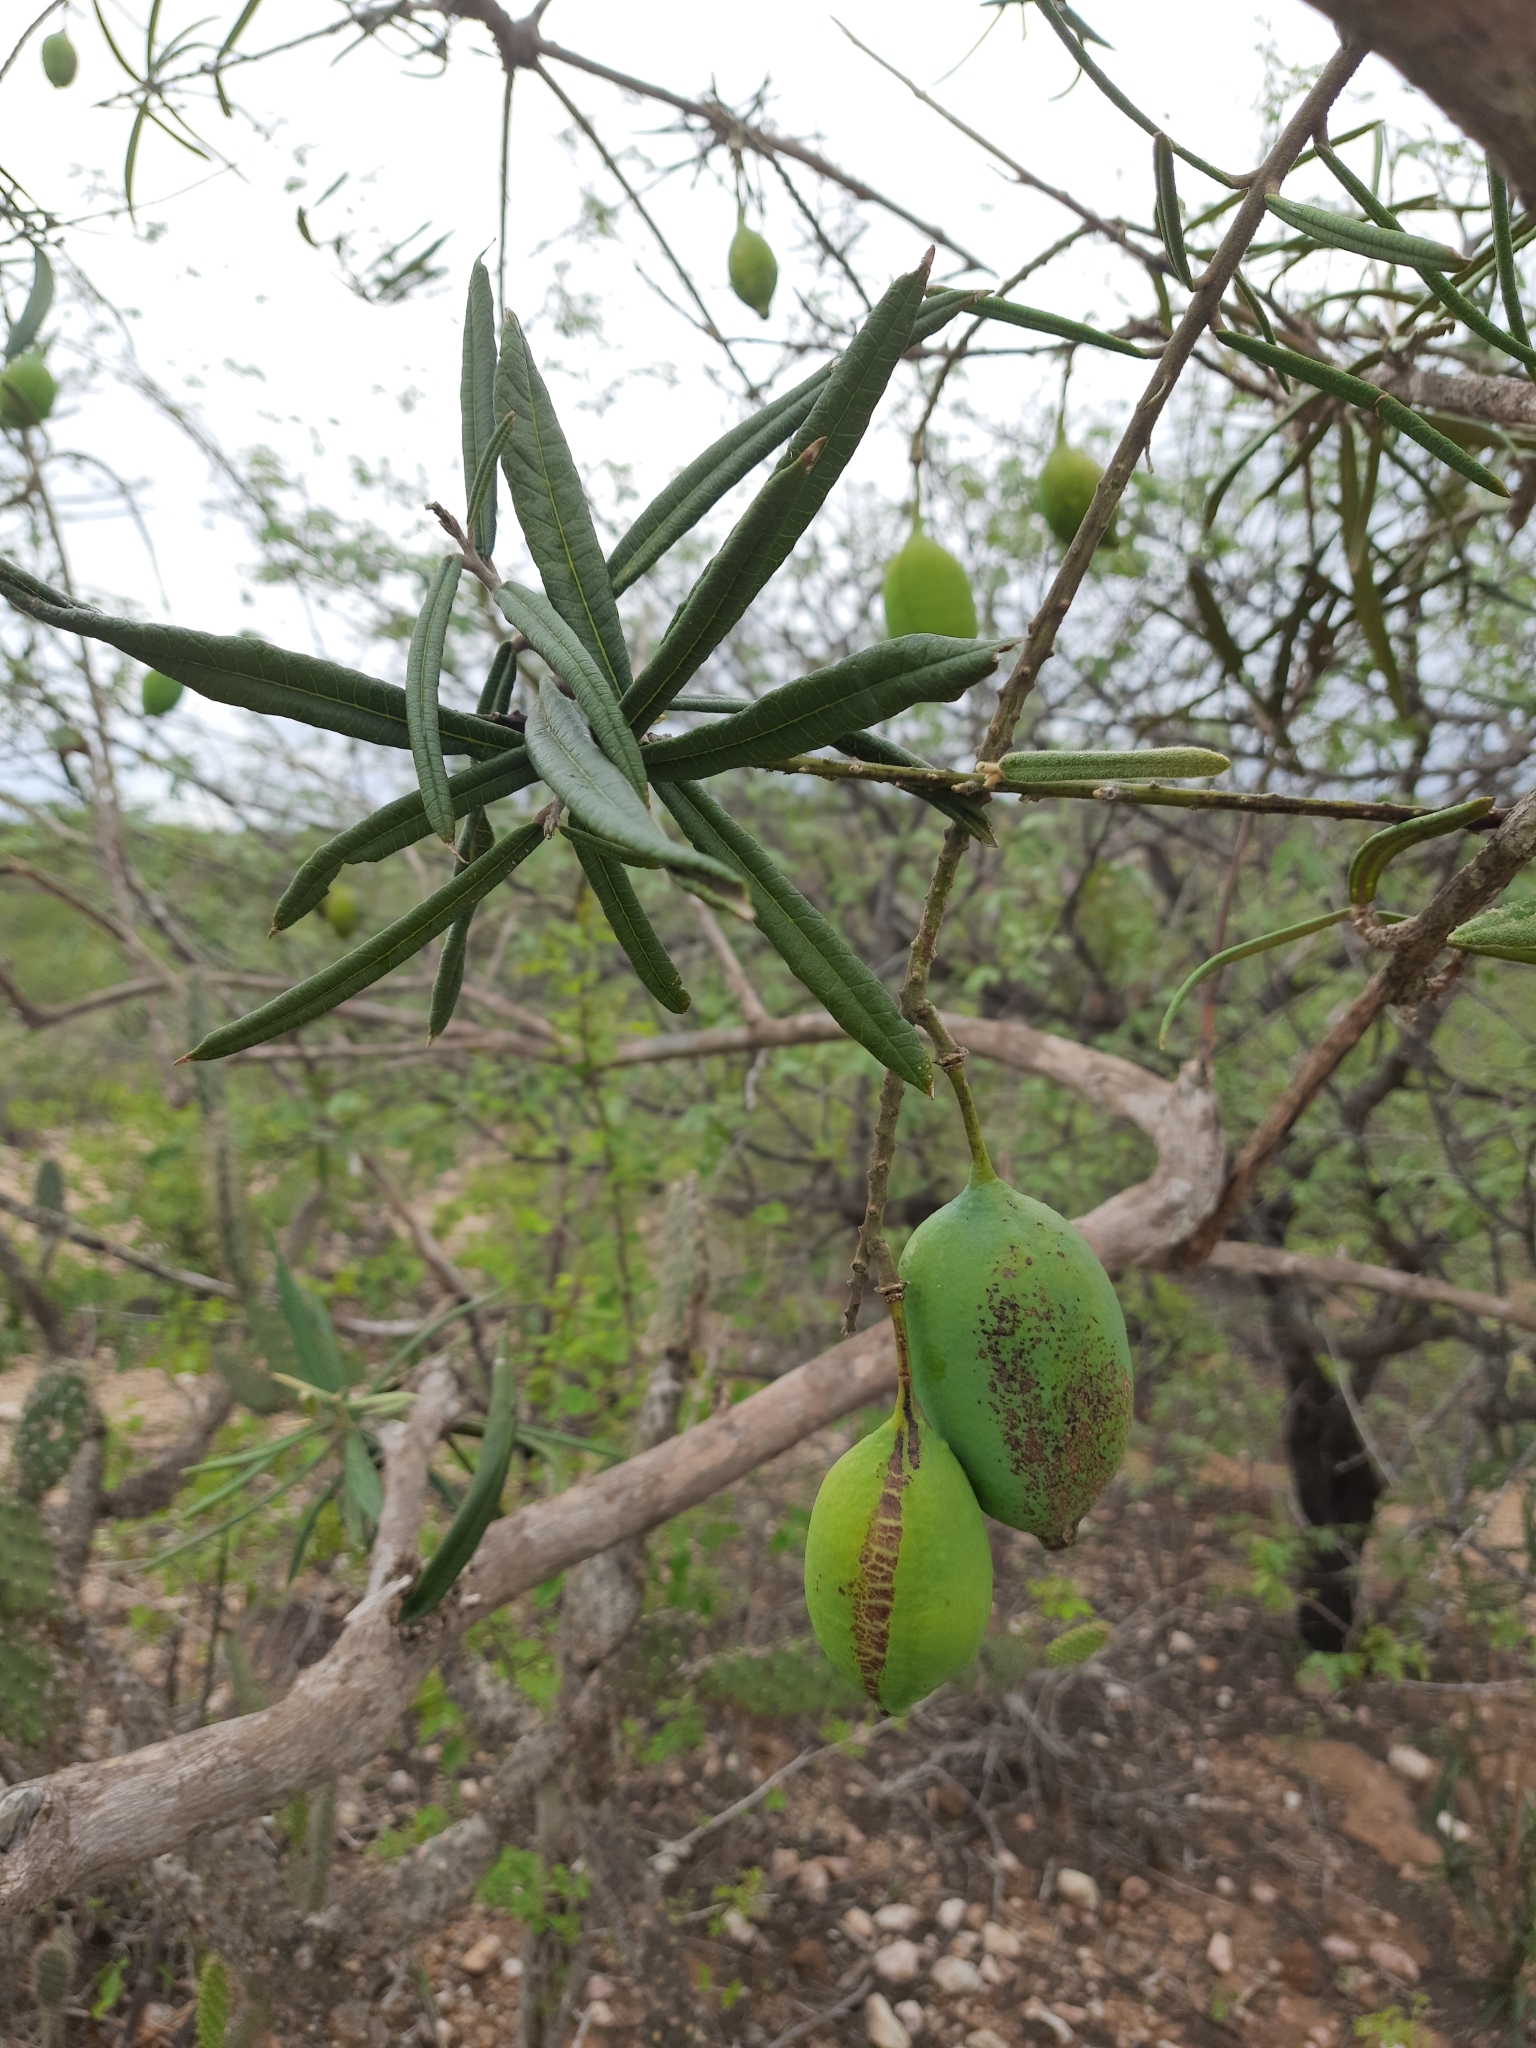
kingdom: Plantae
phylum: Tracheophyta
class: Magnoliopsida
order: Brassicales
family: Capparaceae
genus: Neocalyptrocalyx
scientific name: Neocalyptrocalyx longifolium
